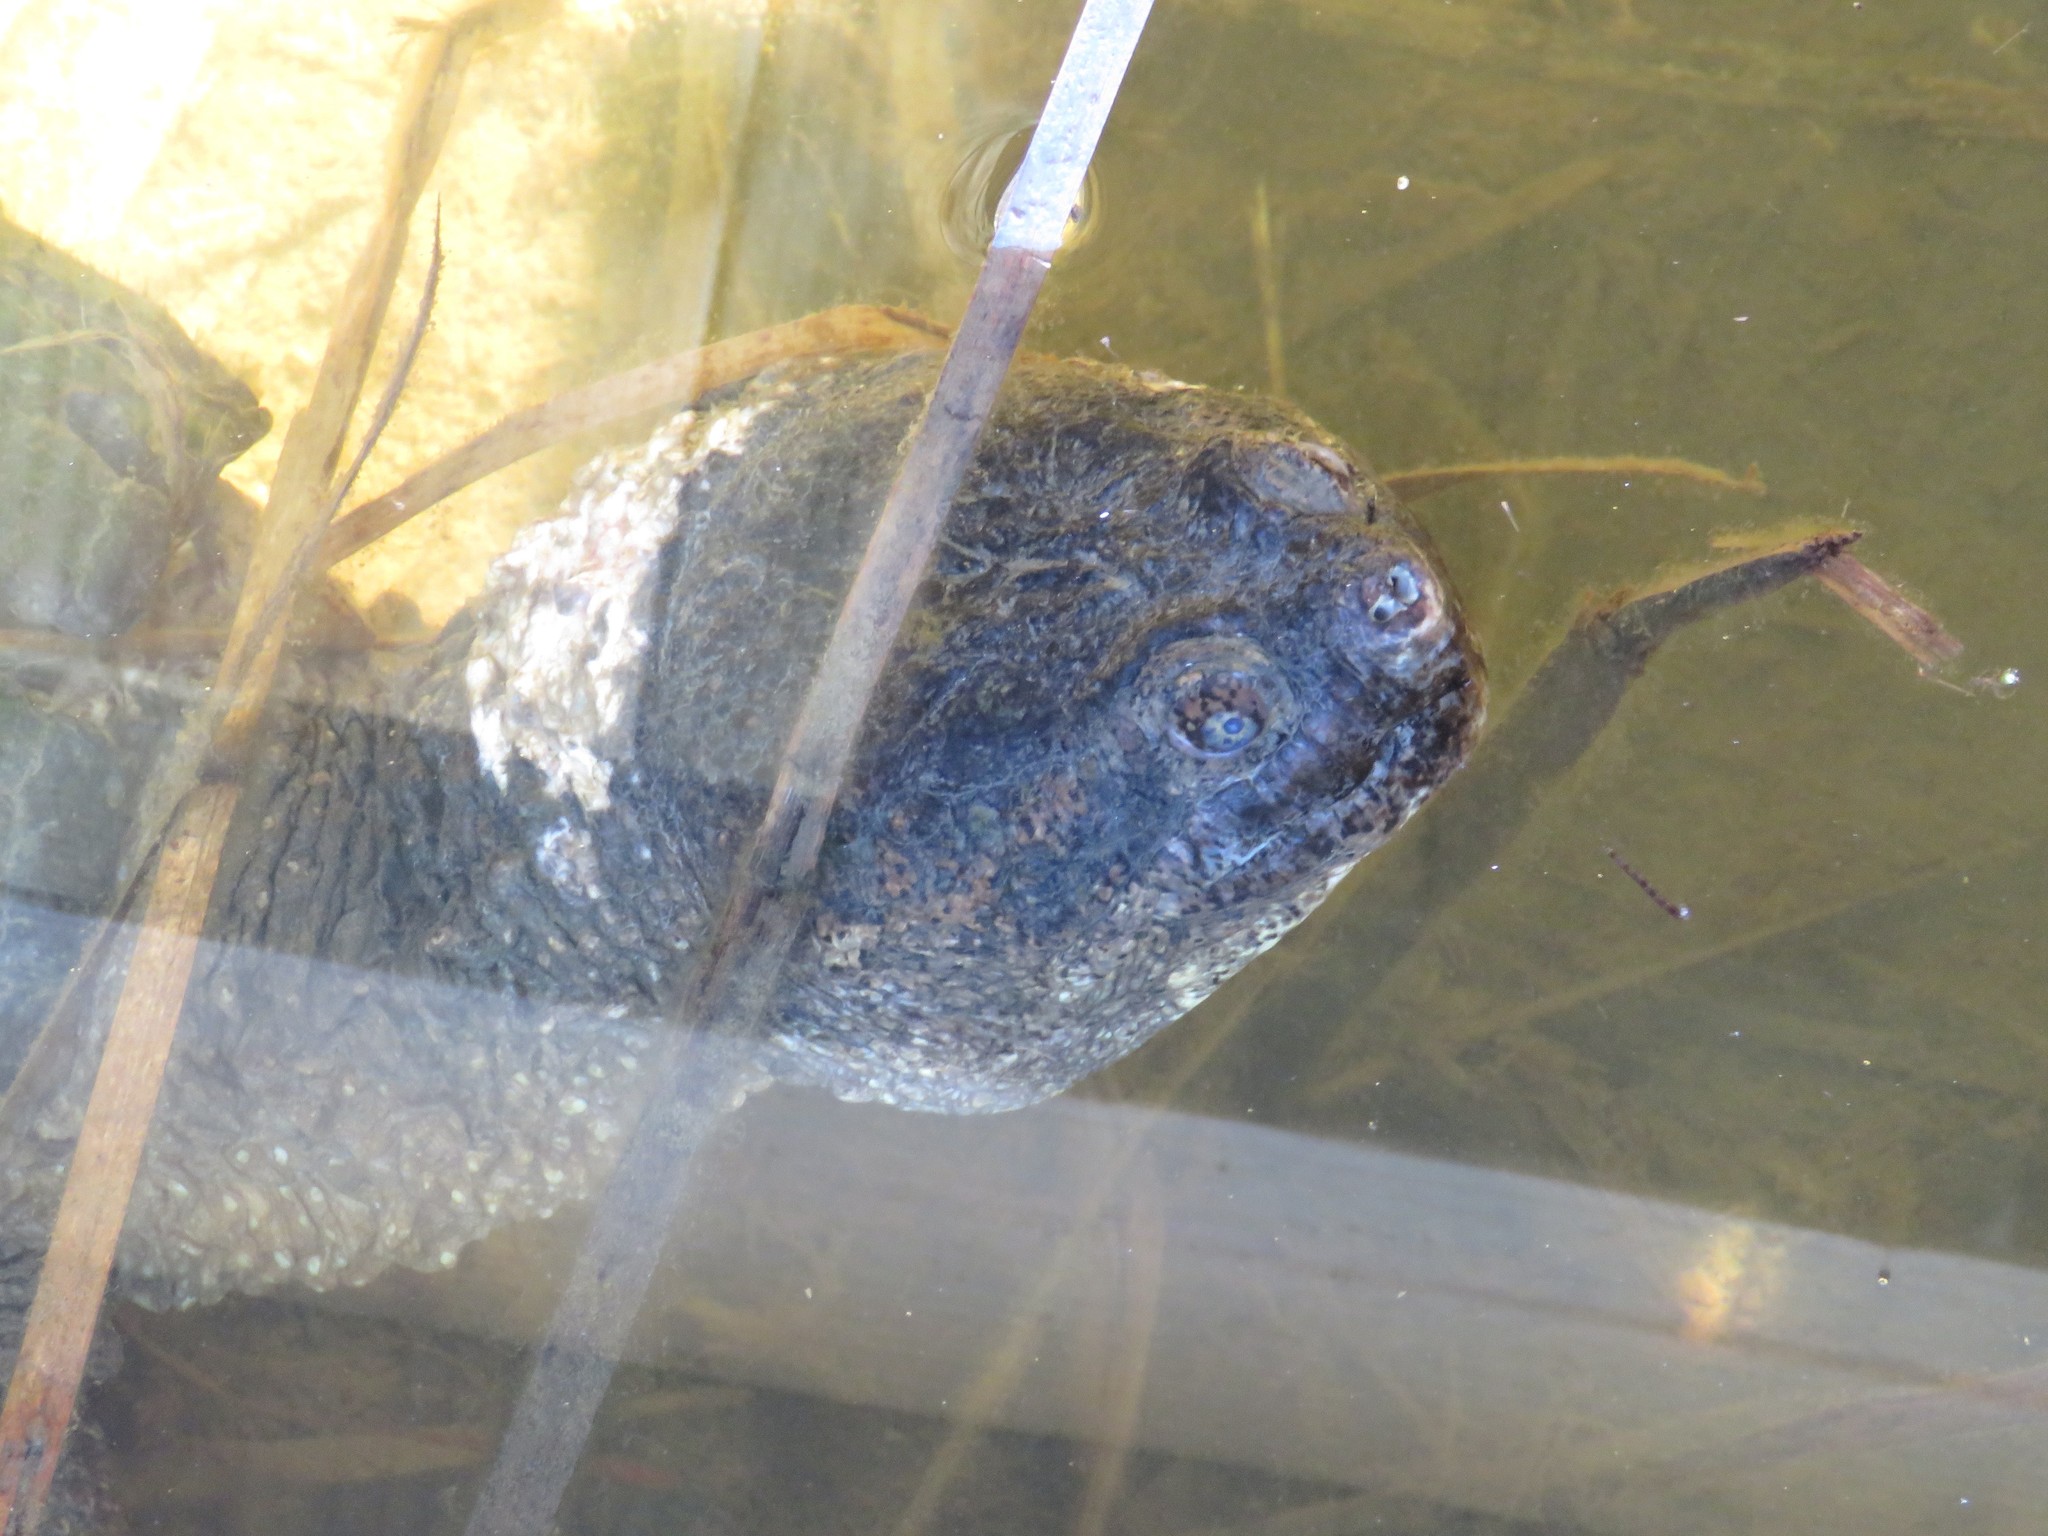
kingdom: Animalia
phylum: Chordata
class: Testudines
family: Chelydridae
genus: Chelydra
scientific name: Chelydra serpentina
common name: Common snapping turtle
